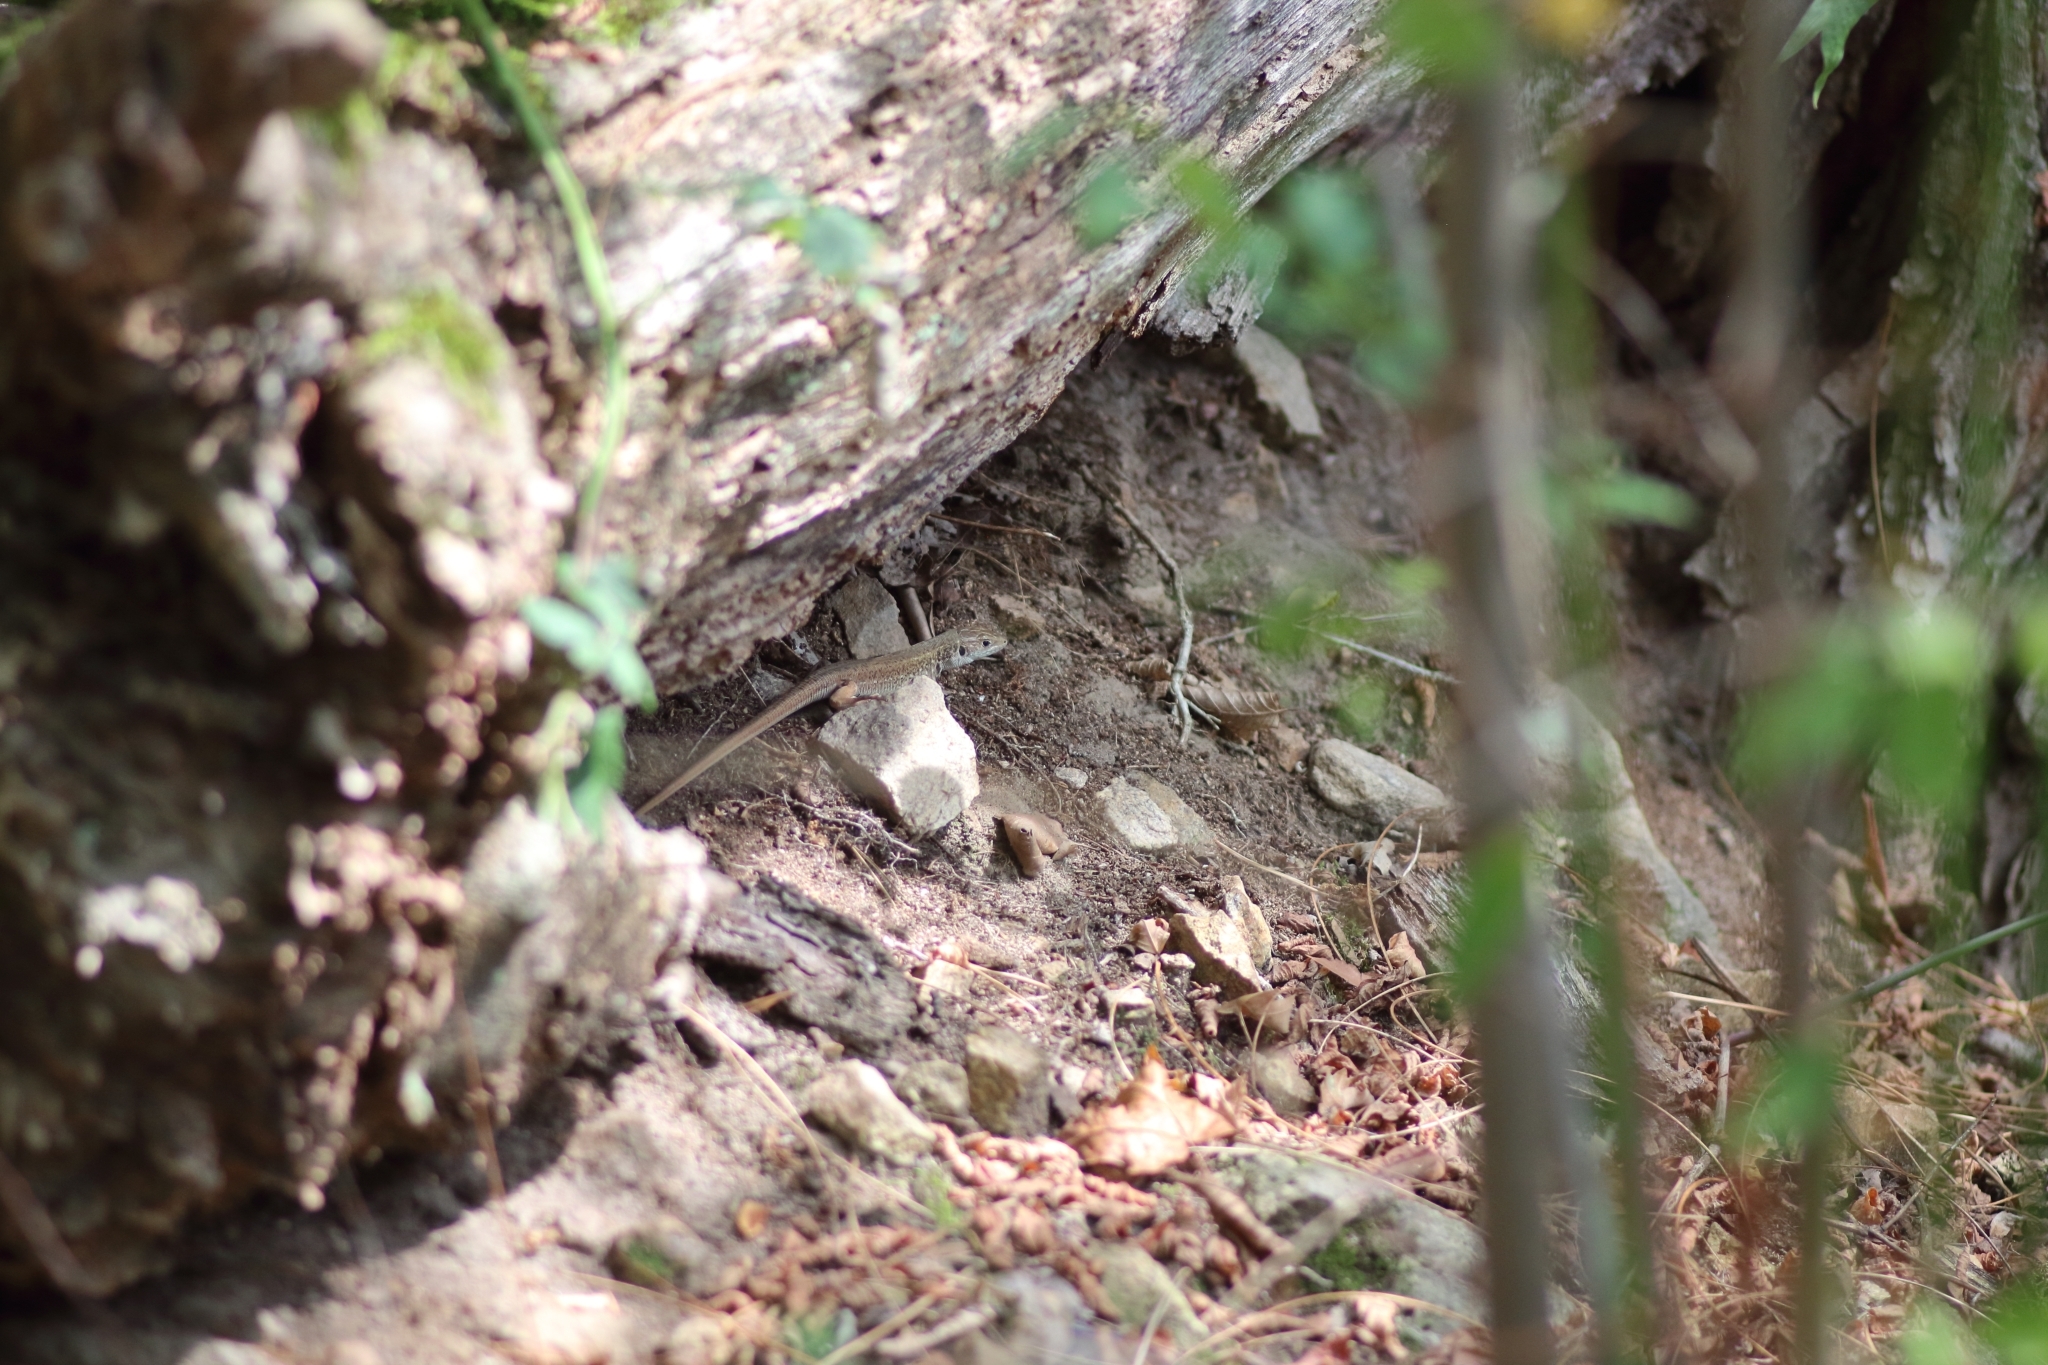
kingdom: Animalia
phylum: Chordata
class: Squamata
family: Lacertidae
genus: Lacerta
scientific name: Lacerta viridis
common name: European green lizard
